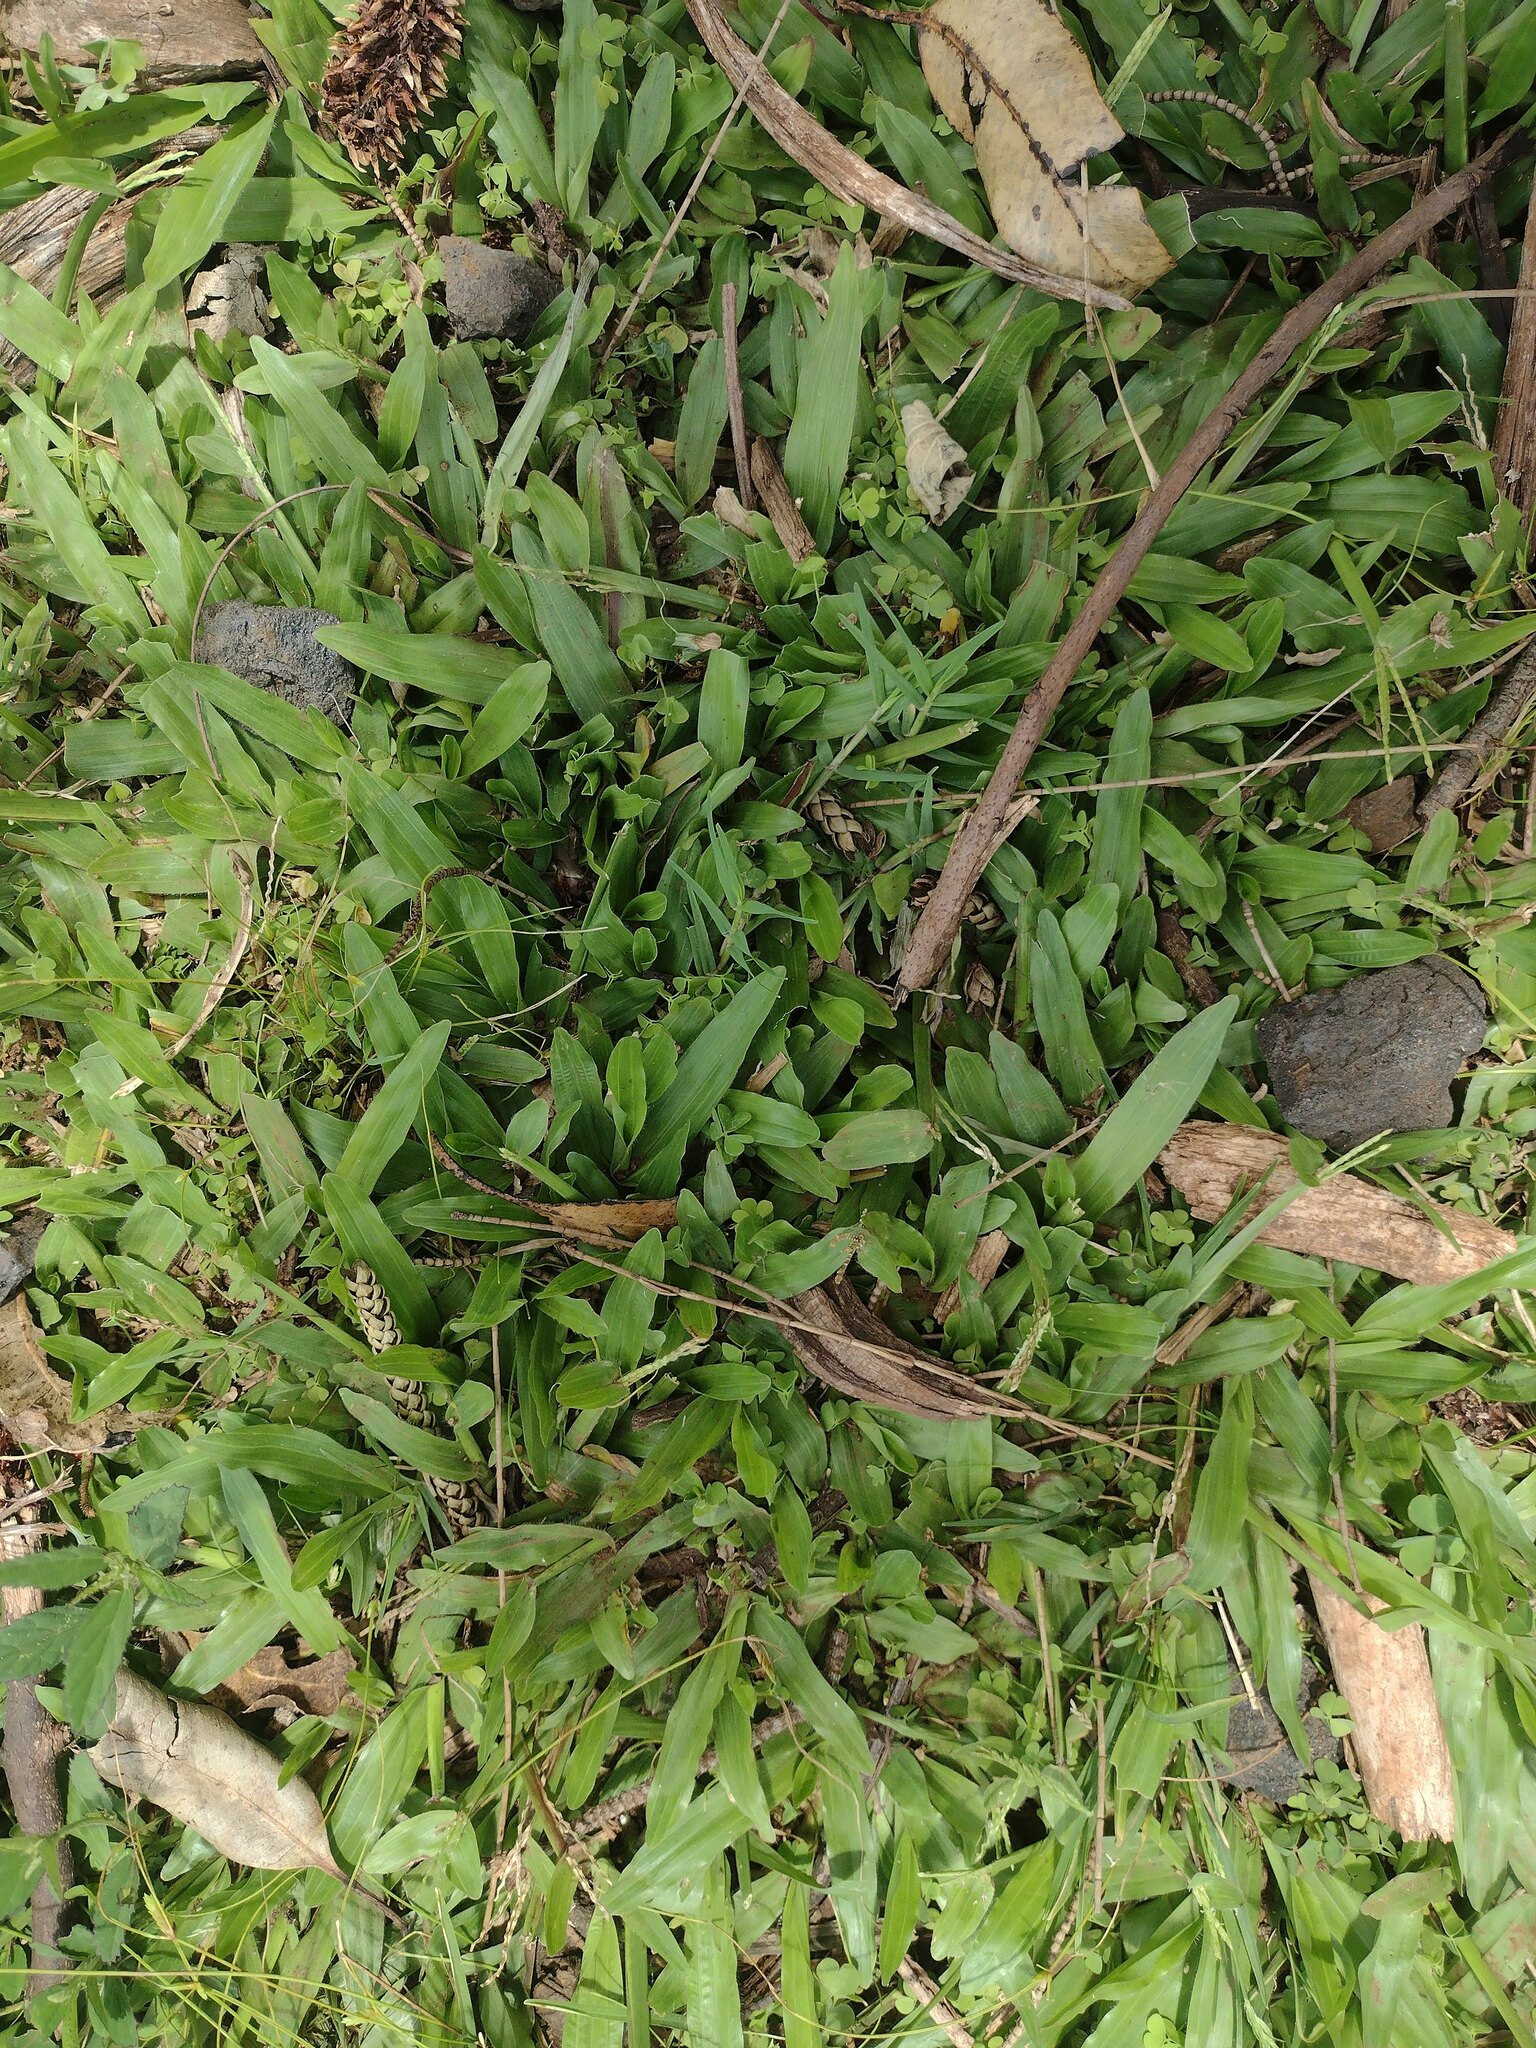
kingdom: Plantae
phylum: Tracheophyta
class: Liliopsida
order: Poales
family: Poaceae
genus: Axonopus
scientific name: Axonopus compressus
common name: American carpet grass
